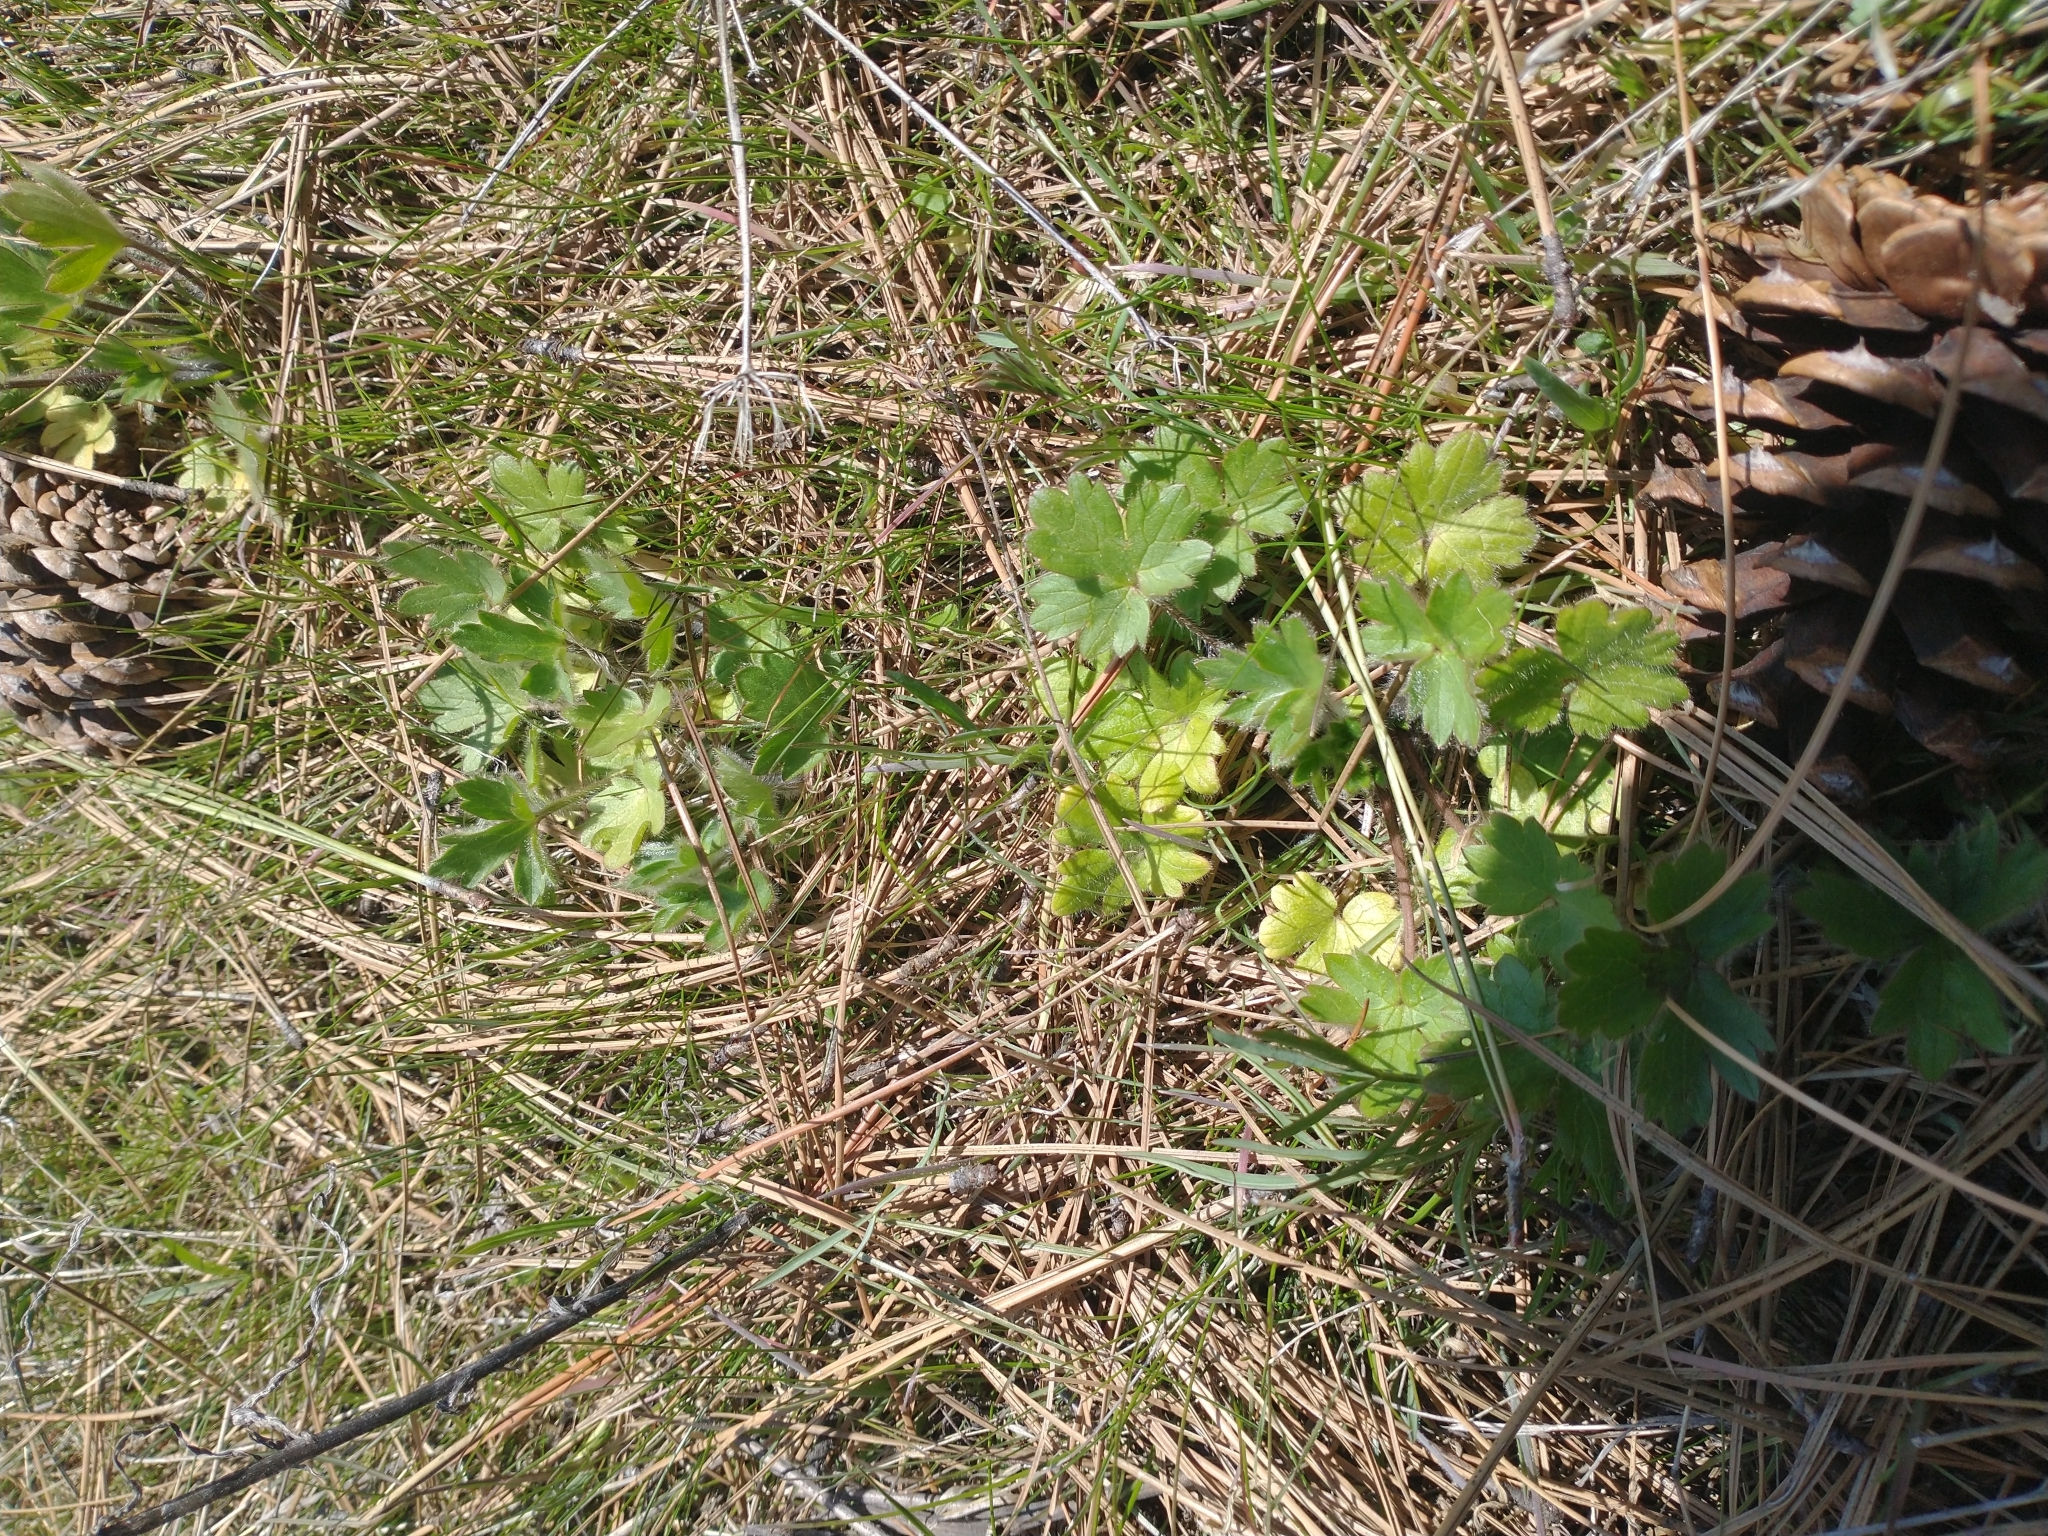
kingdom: Plantae
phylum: Tracheophyta
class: Magnoliopsida
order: Ranunculales
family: Ranunculaceae
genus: Ranunculus
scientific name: Ranunculus occidentalis
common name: Western buttercup
